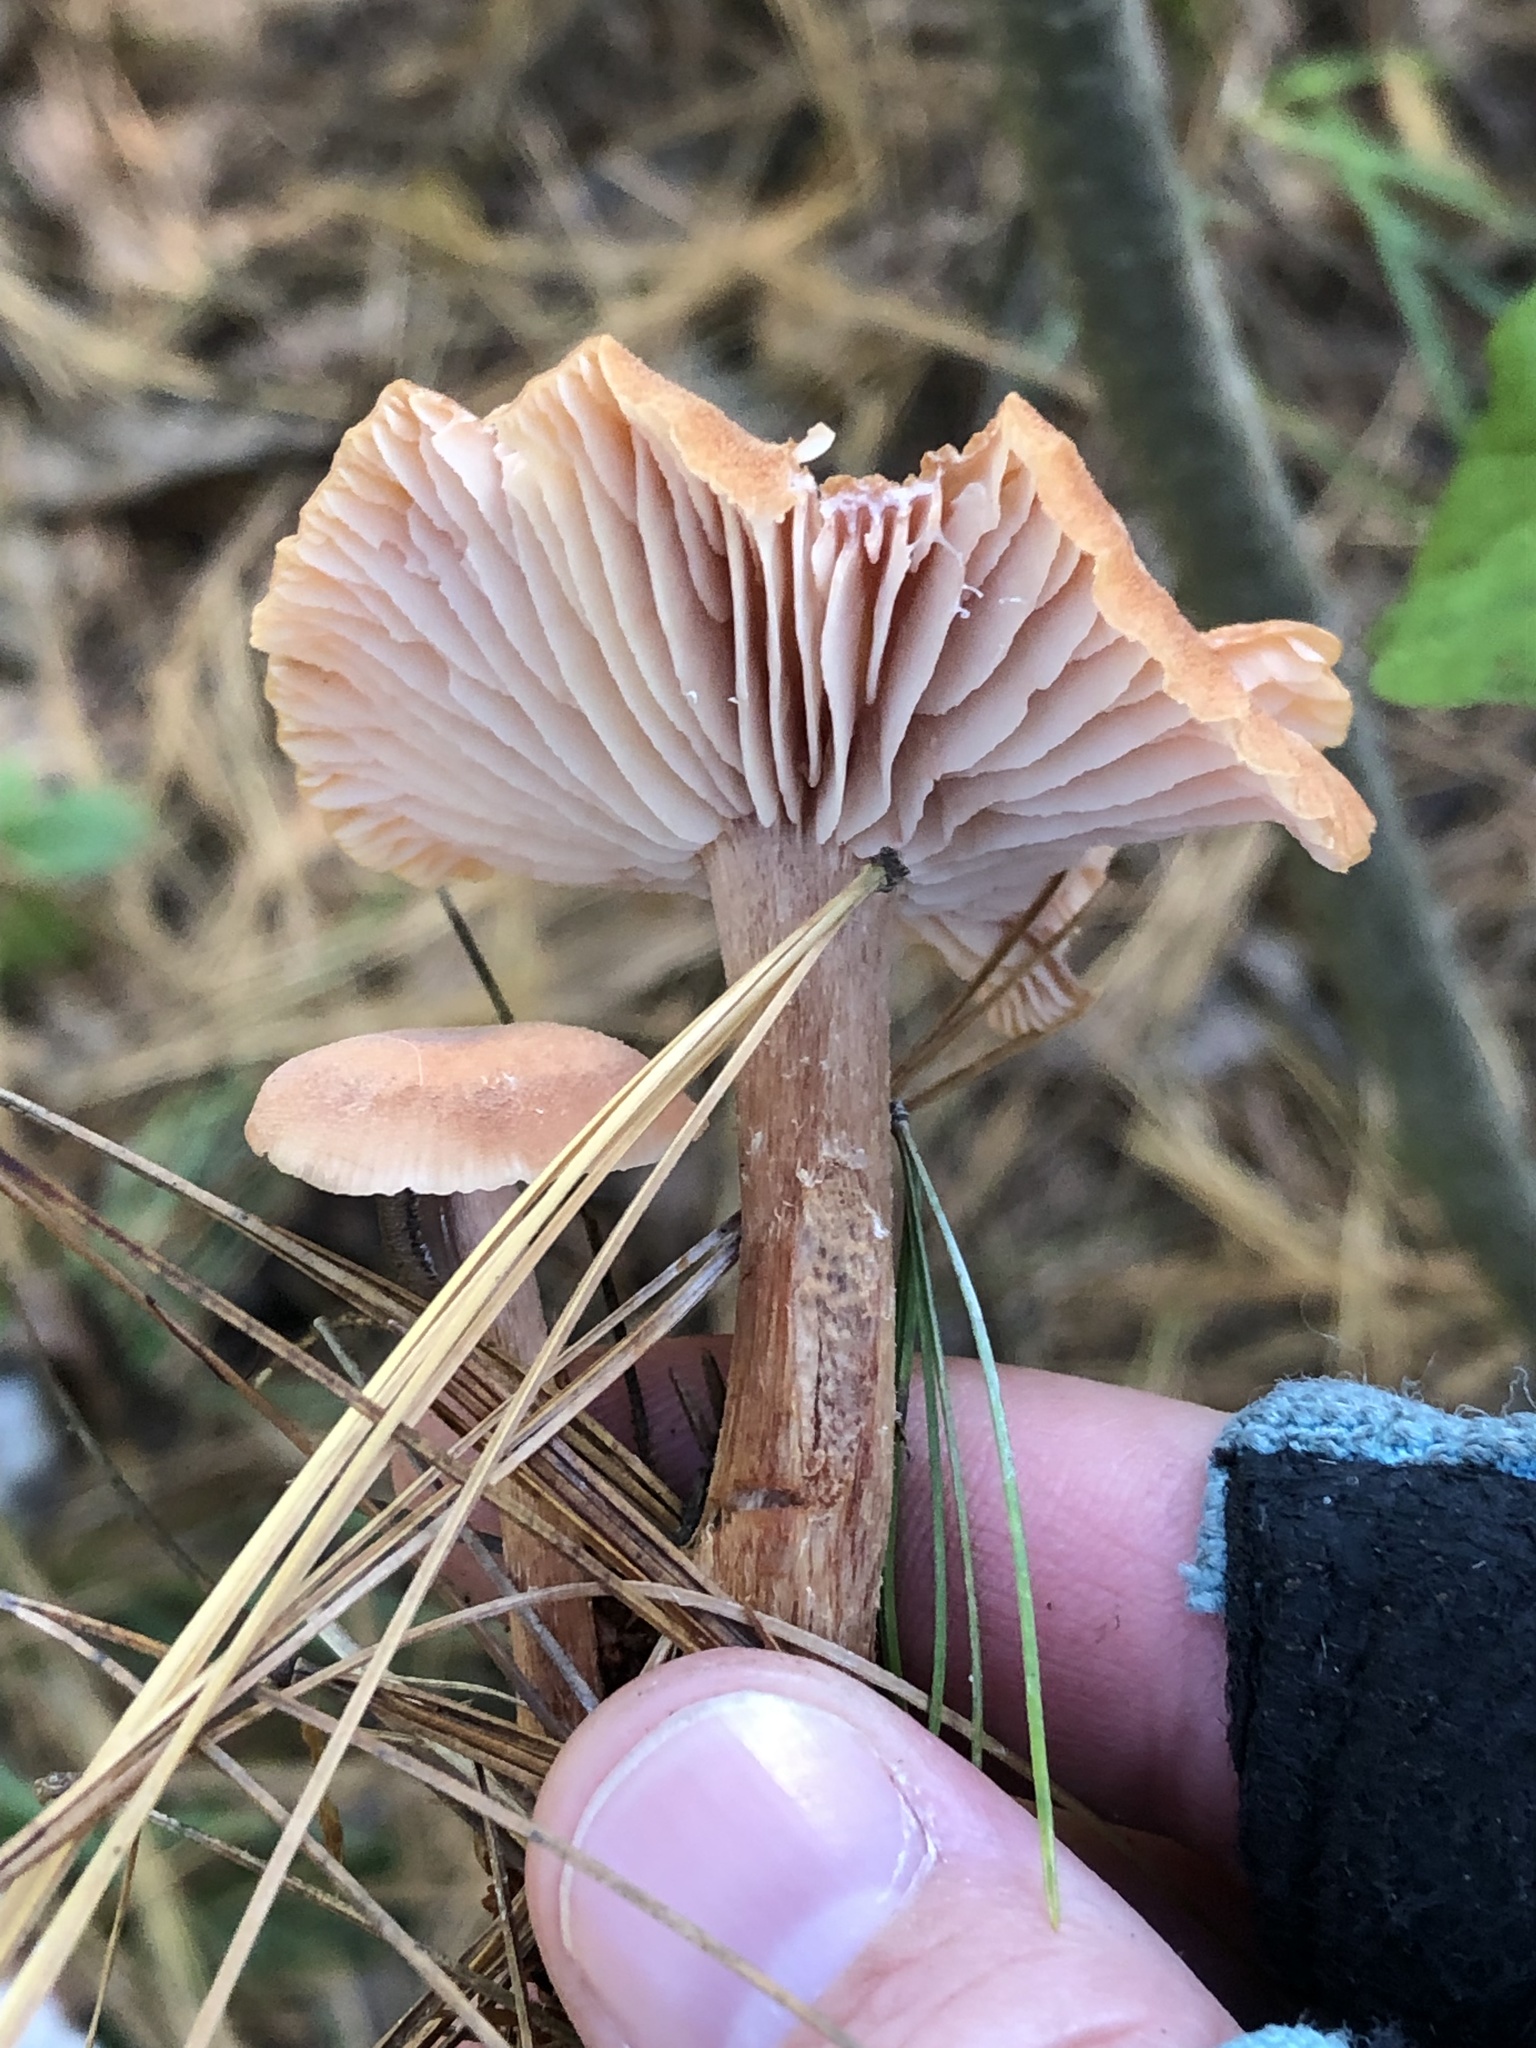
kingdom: Fungi
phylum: Basidiomycota
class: Agaricomycetes
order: Agaricales
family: Hydnangiaceae
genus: Laccaria
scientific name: Laccaria laccata
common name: Deceiver
